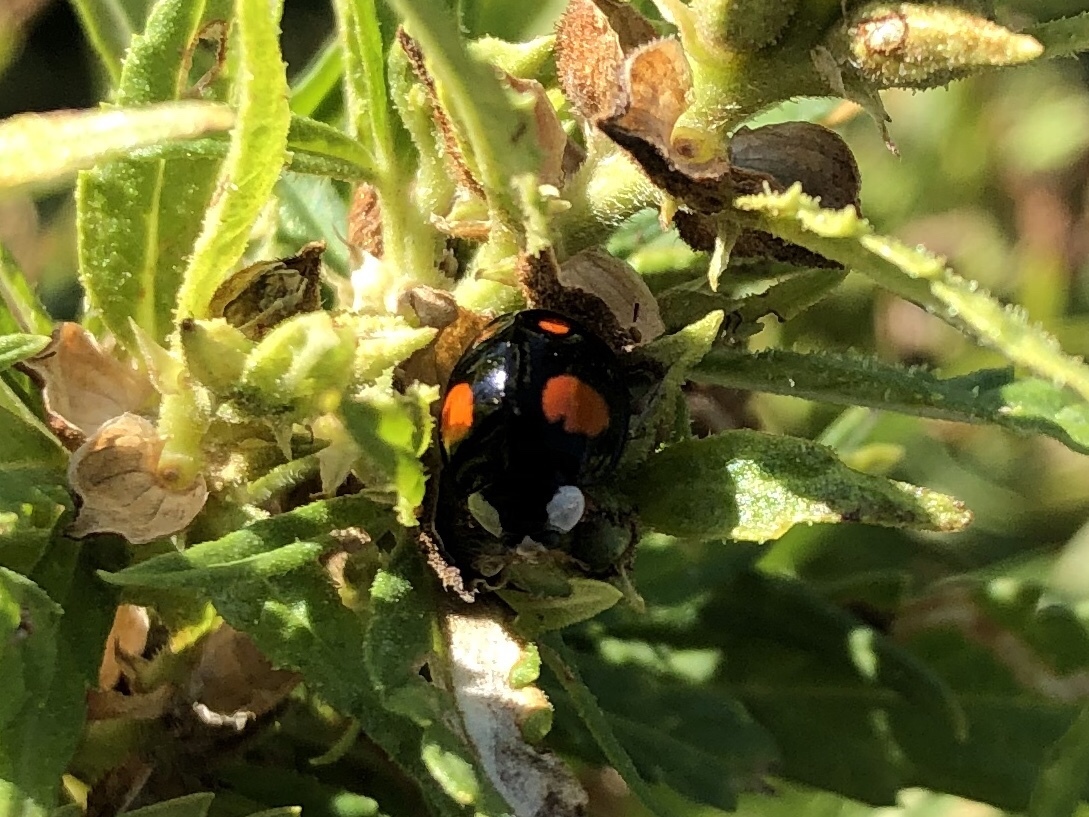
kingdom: Animalia
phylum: Arthropoda
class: Insecta
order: Coleoptera
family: Coccinellidae
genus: Harmonia
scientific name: Harmonia axyridis
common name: Harlequin ladybird
